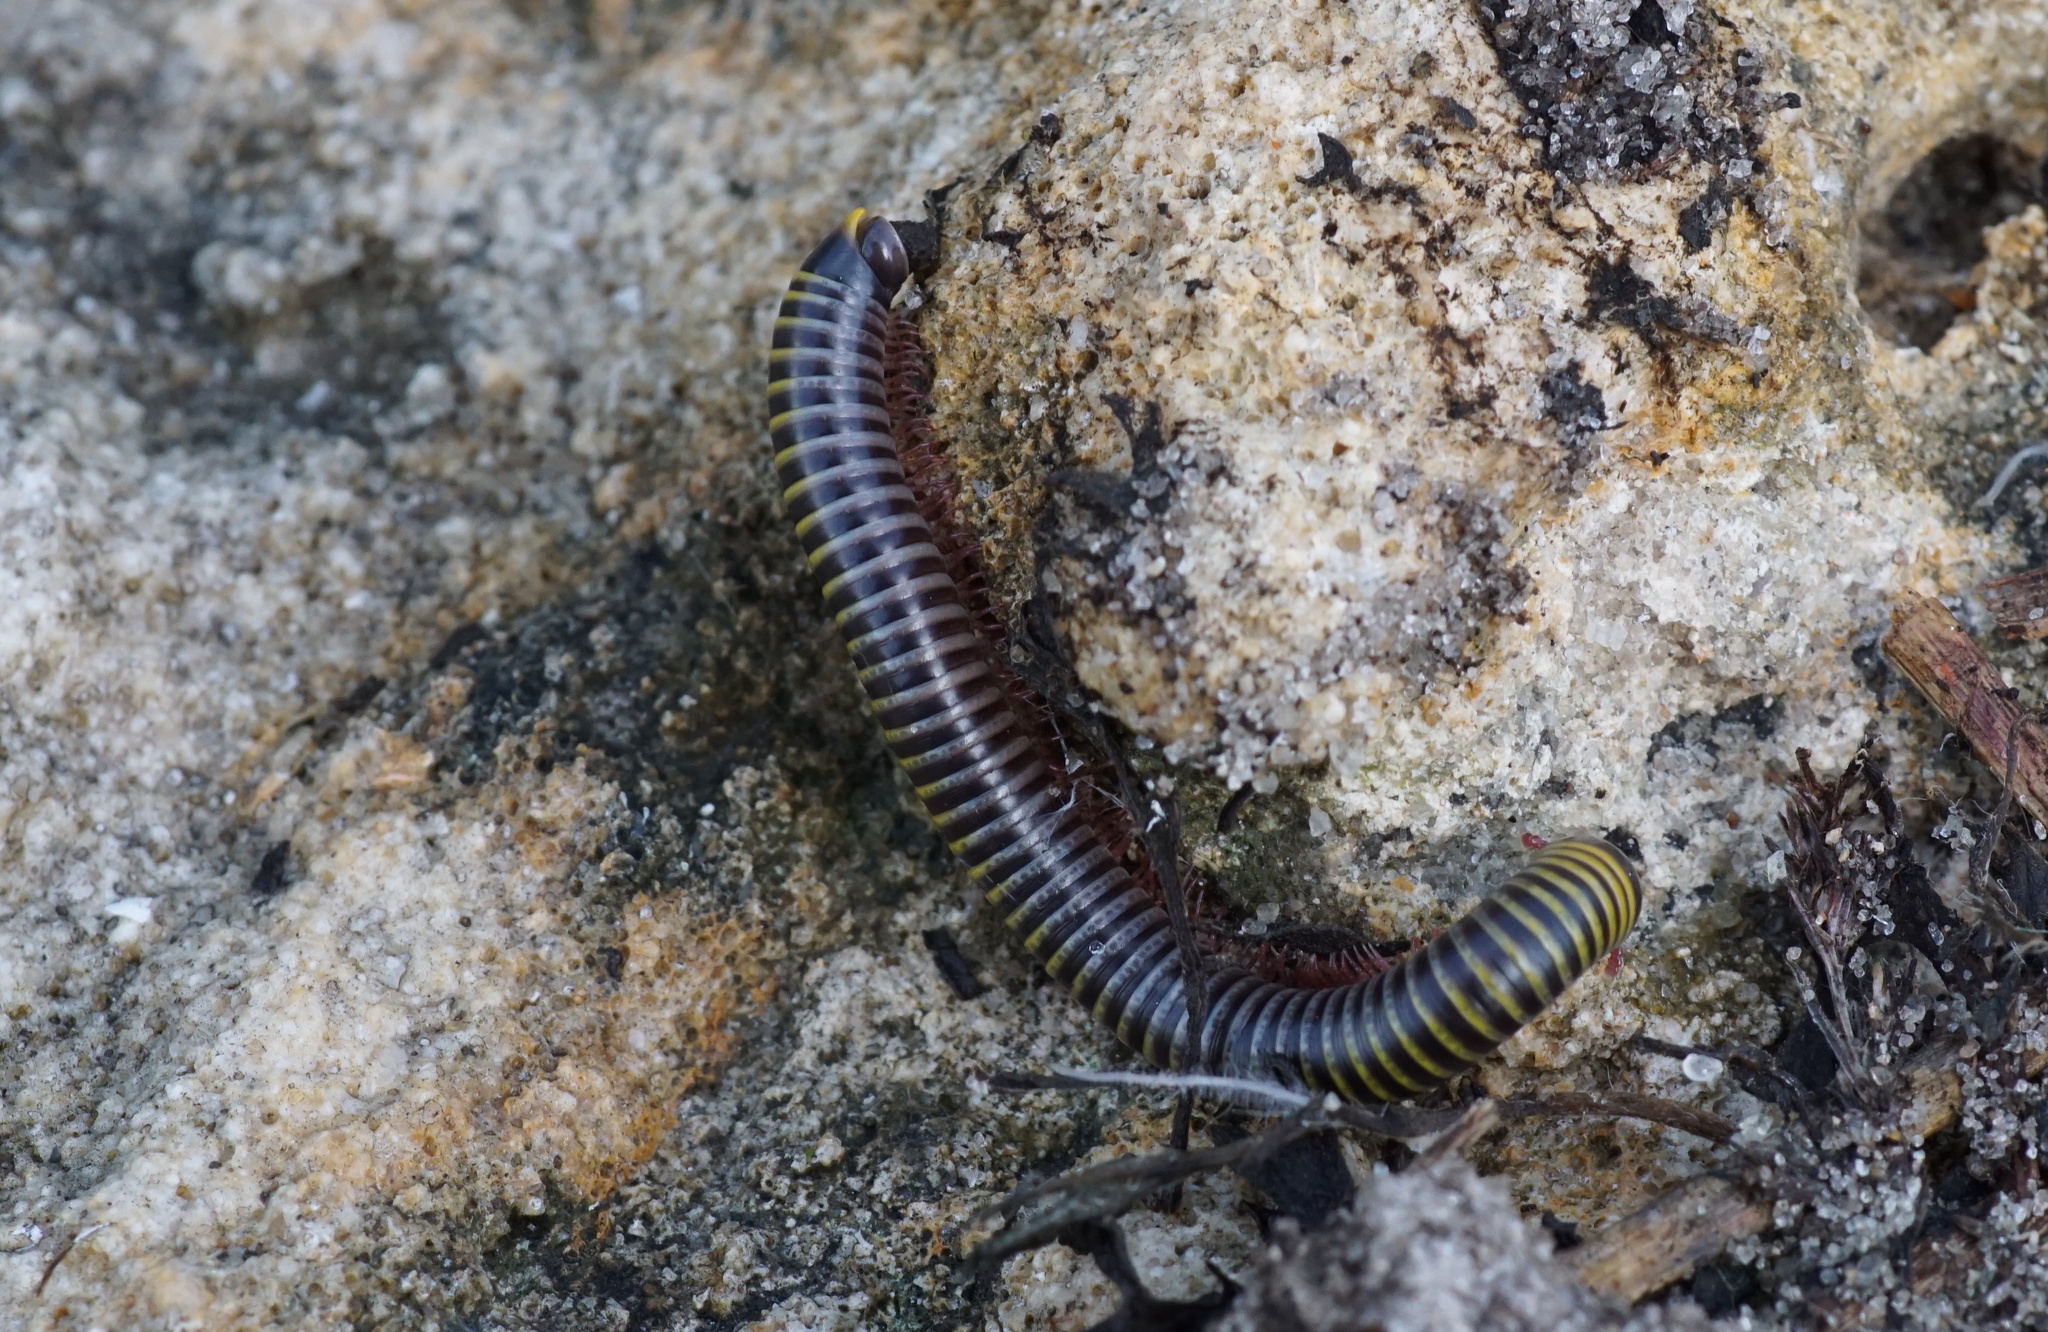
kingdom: Animalia
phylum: Arthropoda
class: Diplopoda
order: Spirobolida
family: Rhinocricidae
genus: Anadenobolus
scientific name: Anadenobolus monilicornis
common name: Caribbean millipede
